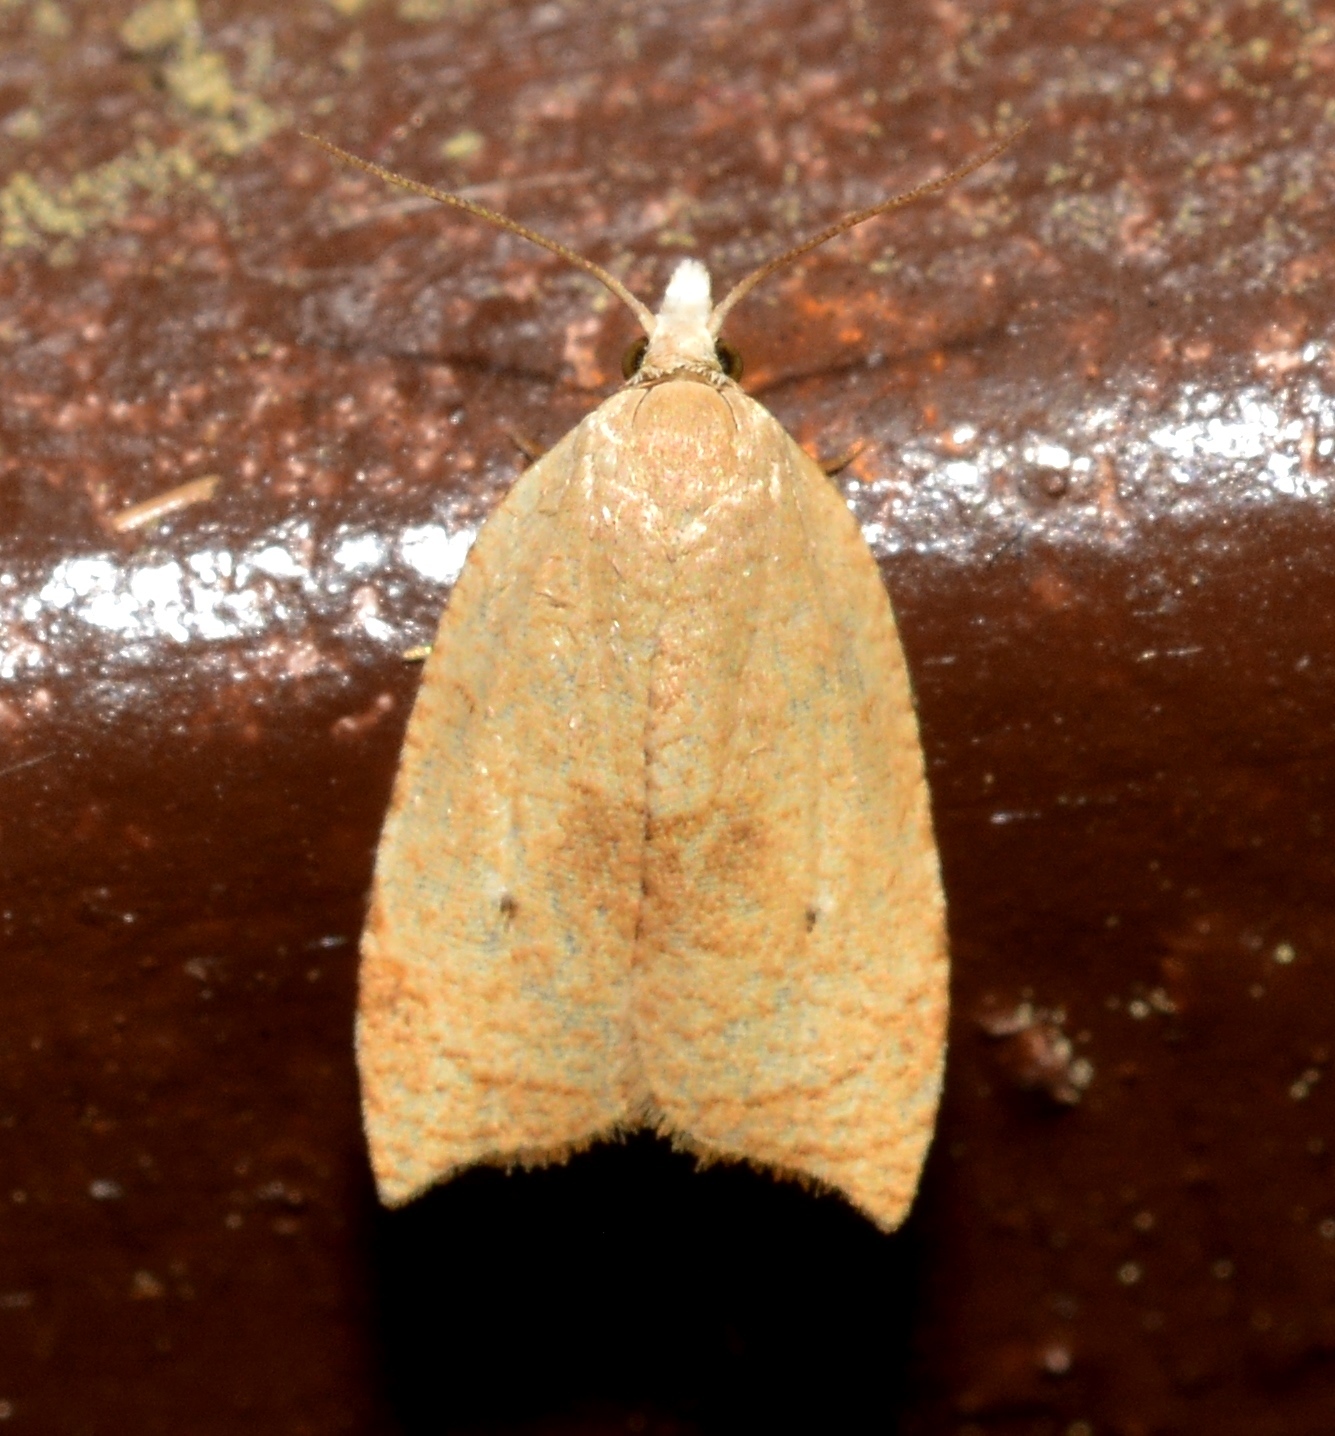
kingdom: Animalia
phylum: Arthropoda
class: Insecta
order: Lepidoptera
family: Tortricidae
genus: Coelostathma
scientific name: Coelostathma discopunctana
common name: Batman moth
